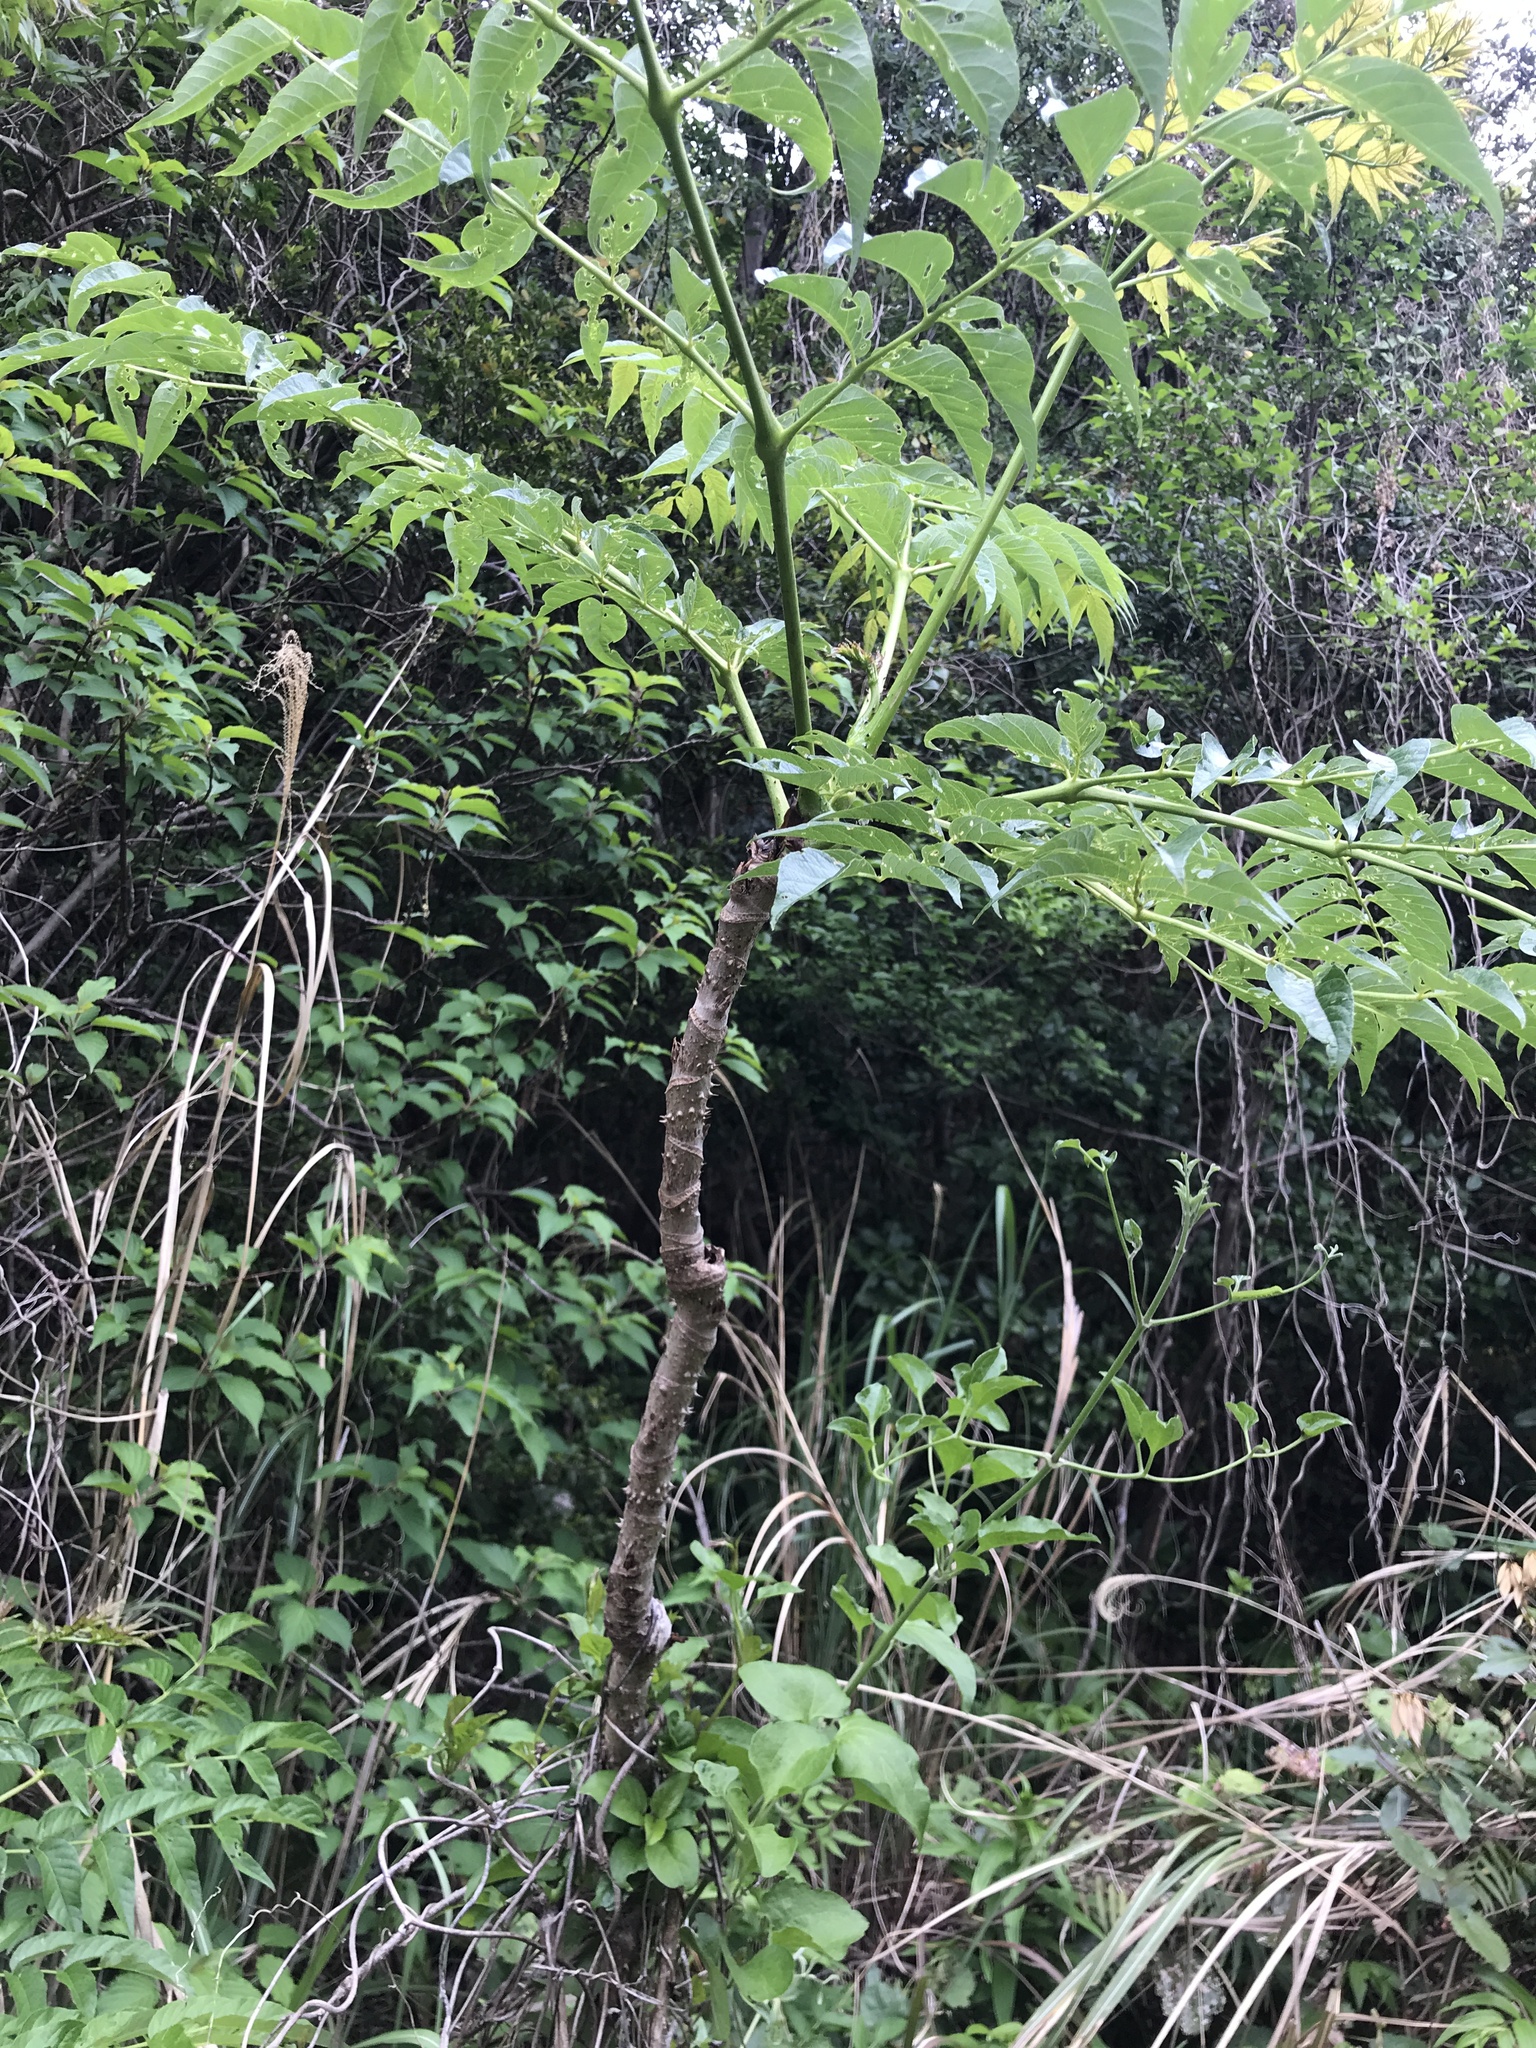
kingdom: Plantae
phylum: Tracheophyta
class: Magnoliopsida
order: Apiales
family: Araliaceae
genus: Aralia
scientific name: Aralia elata
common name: Japanese angelica-tree
